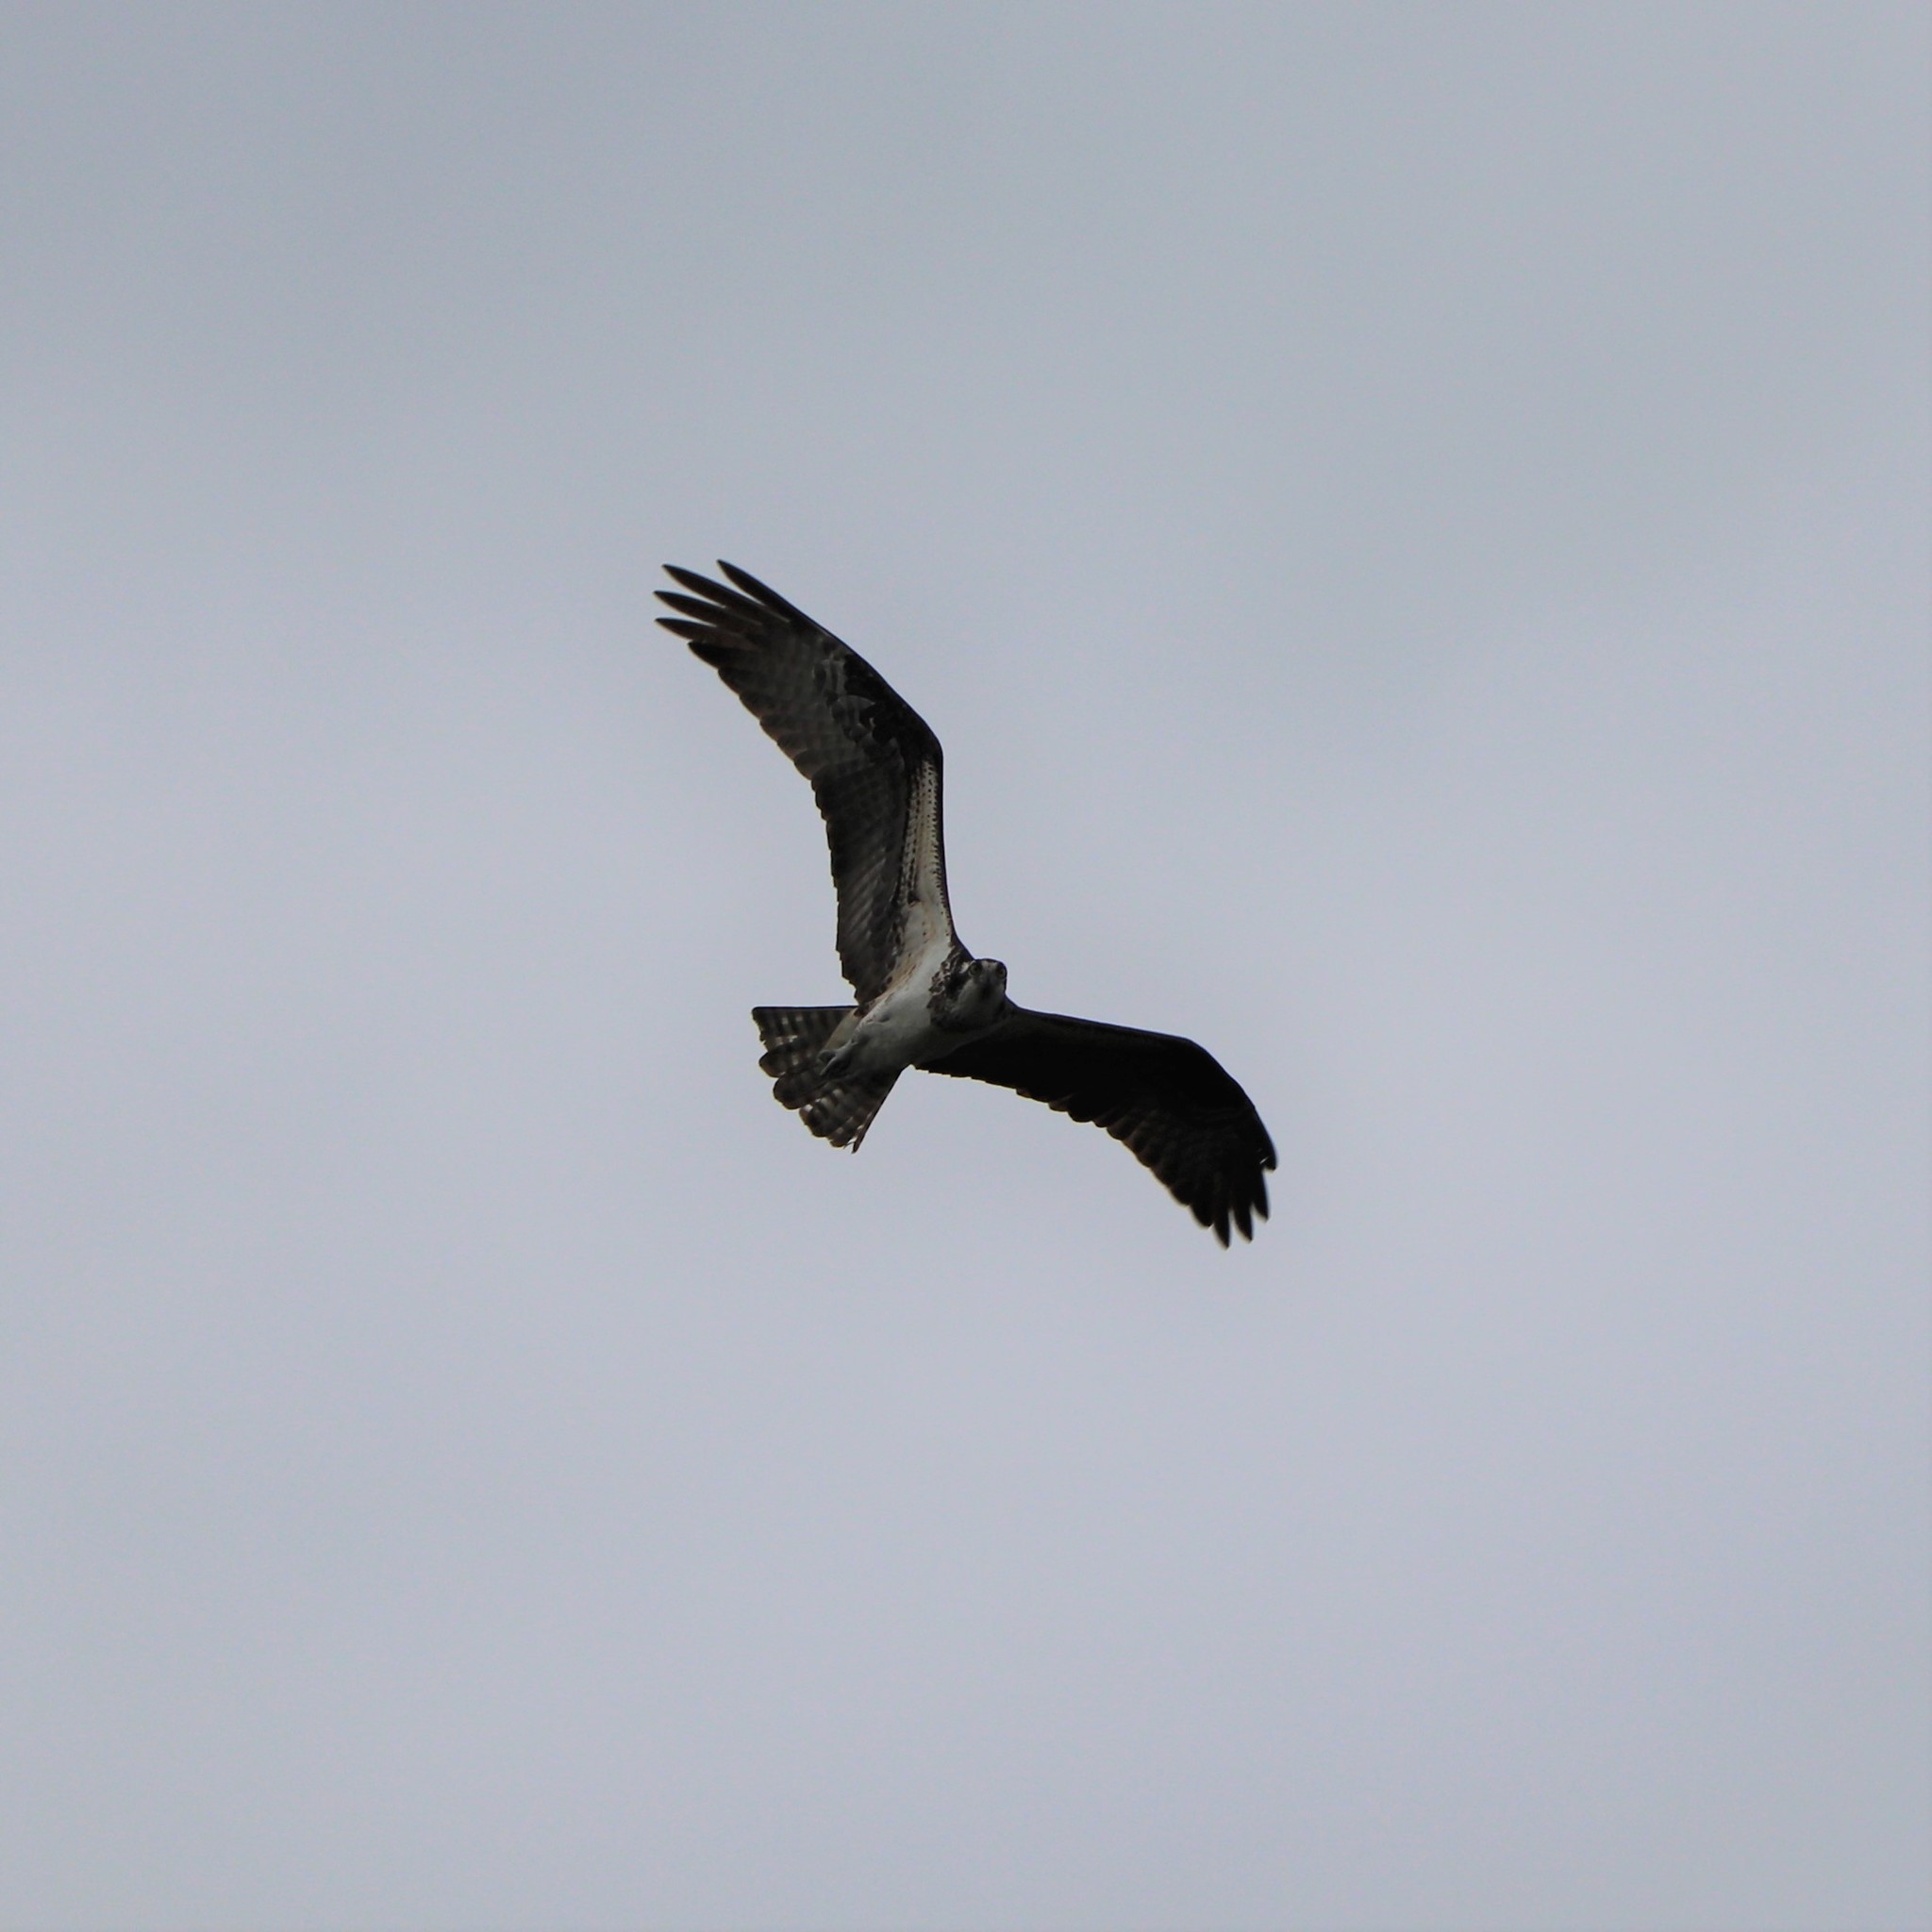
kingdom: Animalia
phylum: Chordata
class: Aves
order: Accipitriformes
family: Pandionidae
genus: Pandion
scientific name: Pandion haliaetus
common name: Osprey
